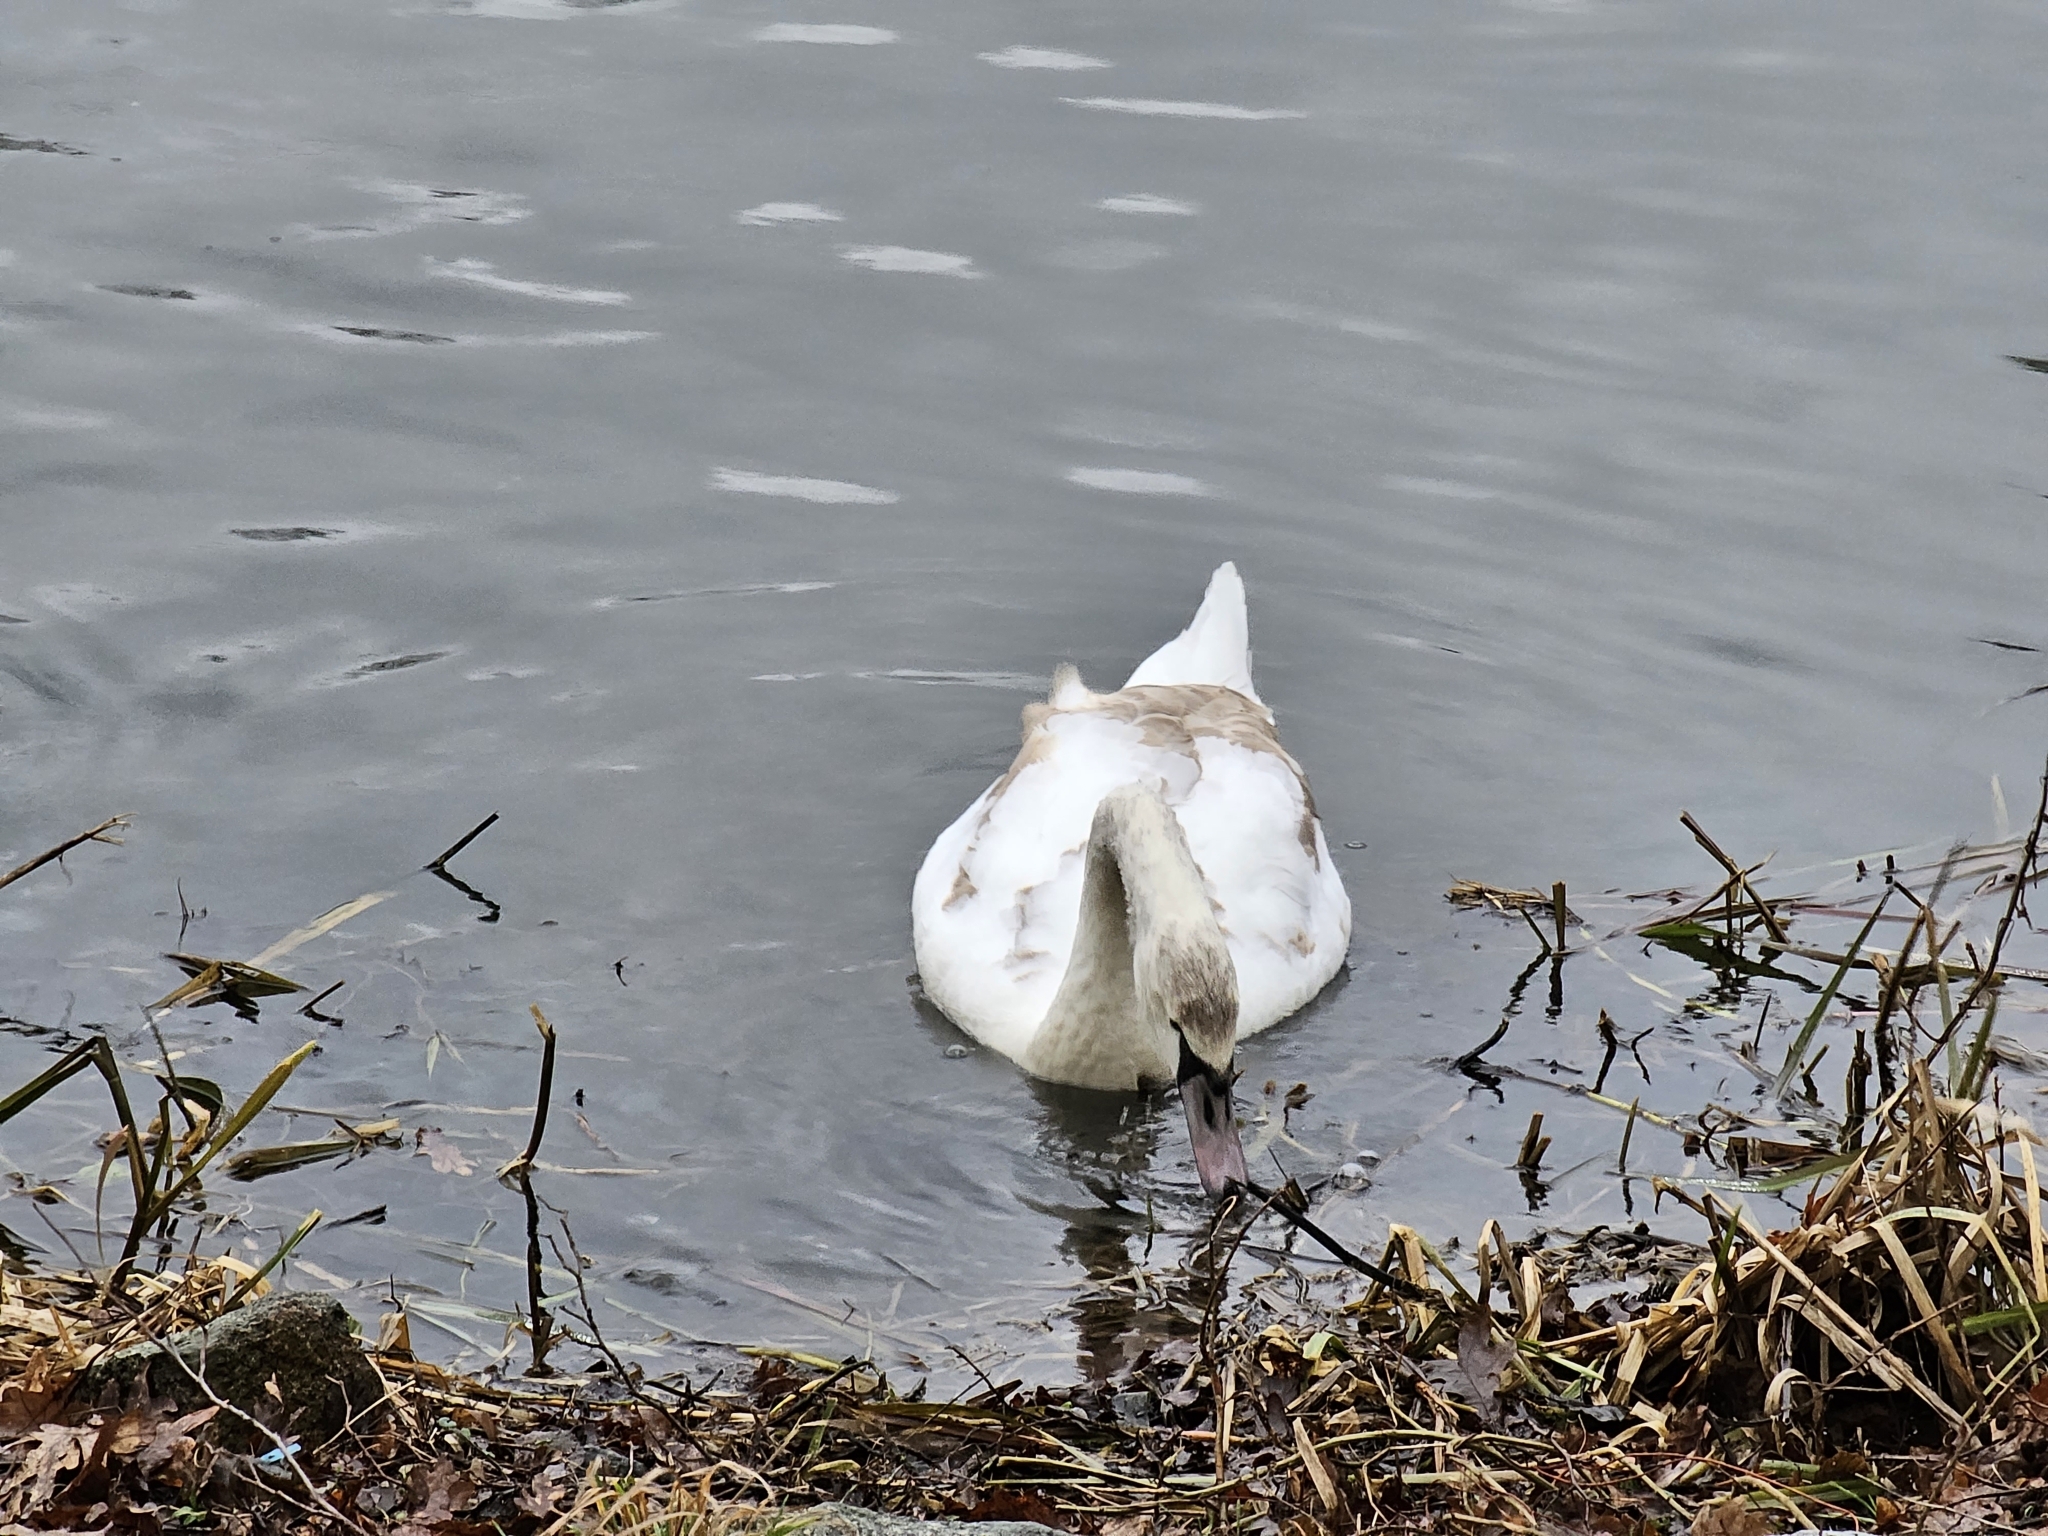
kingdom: Animalia
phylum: Chordata
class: Aves
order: Anseriformes
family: Anatidae
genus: Cygnus
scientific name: Cygnus olor
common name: Mute swan
